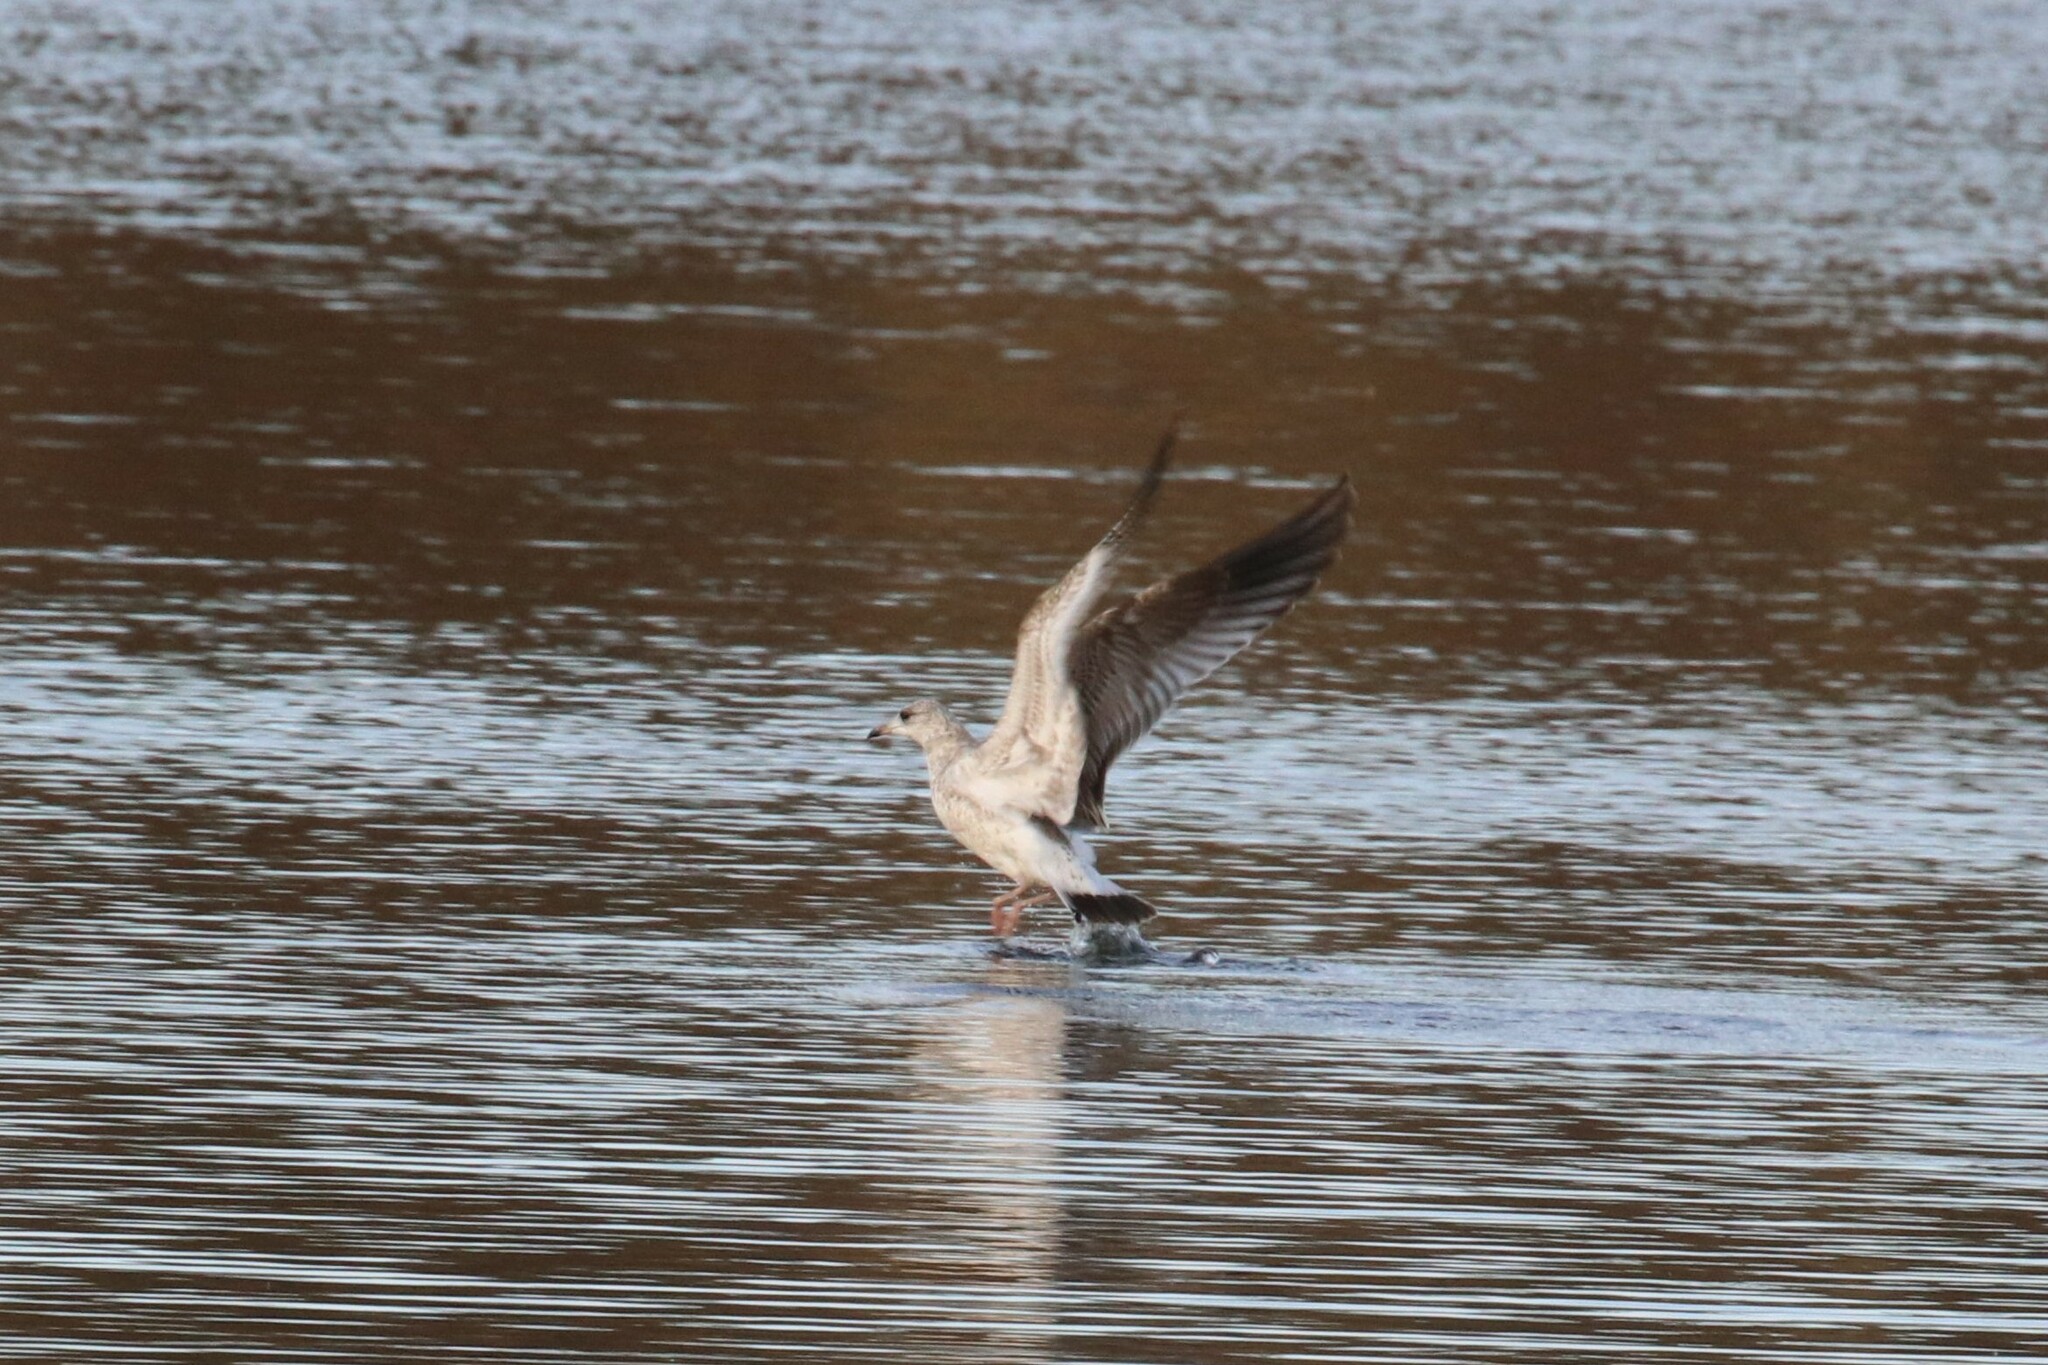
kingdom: Animalia
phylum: Chordata
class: Aves
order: Charadriiformes
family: Laridae
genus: Larus
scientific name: Larus canus
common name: Mew gull
